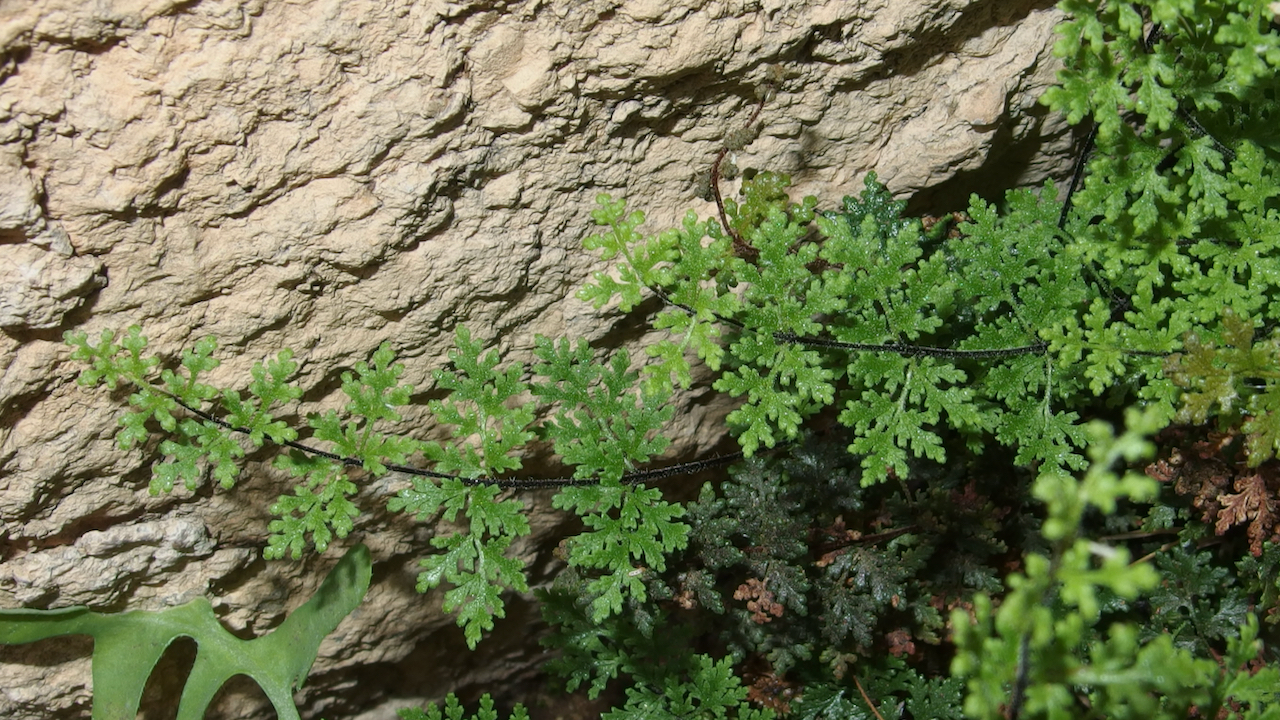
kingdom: Plantae
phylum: Tracheophyta
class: Polypodiopsida
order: Polypodiales
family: Pteridaceae
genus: Myriopteris
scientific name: Myriopteris viscida
